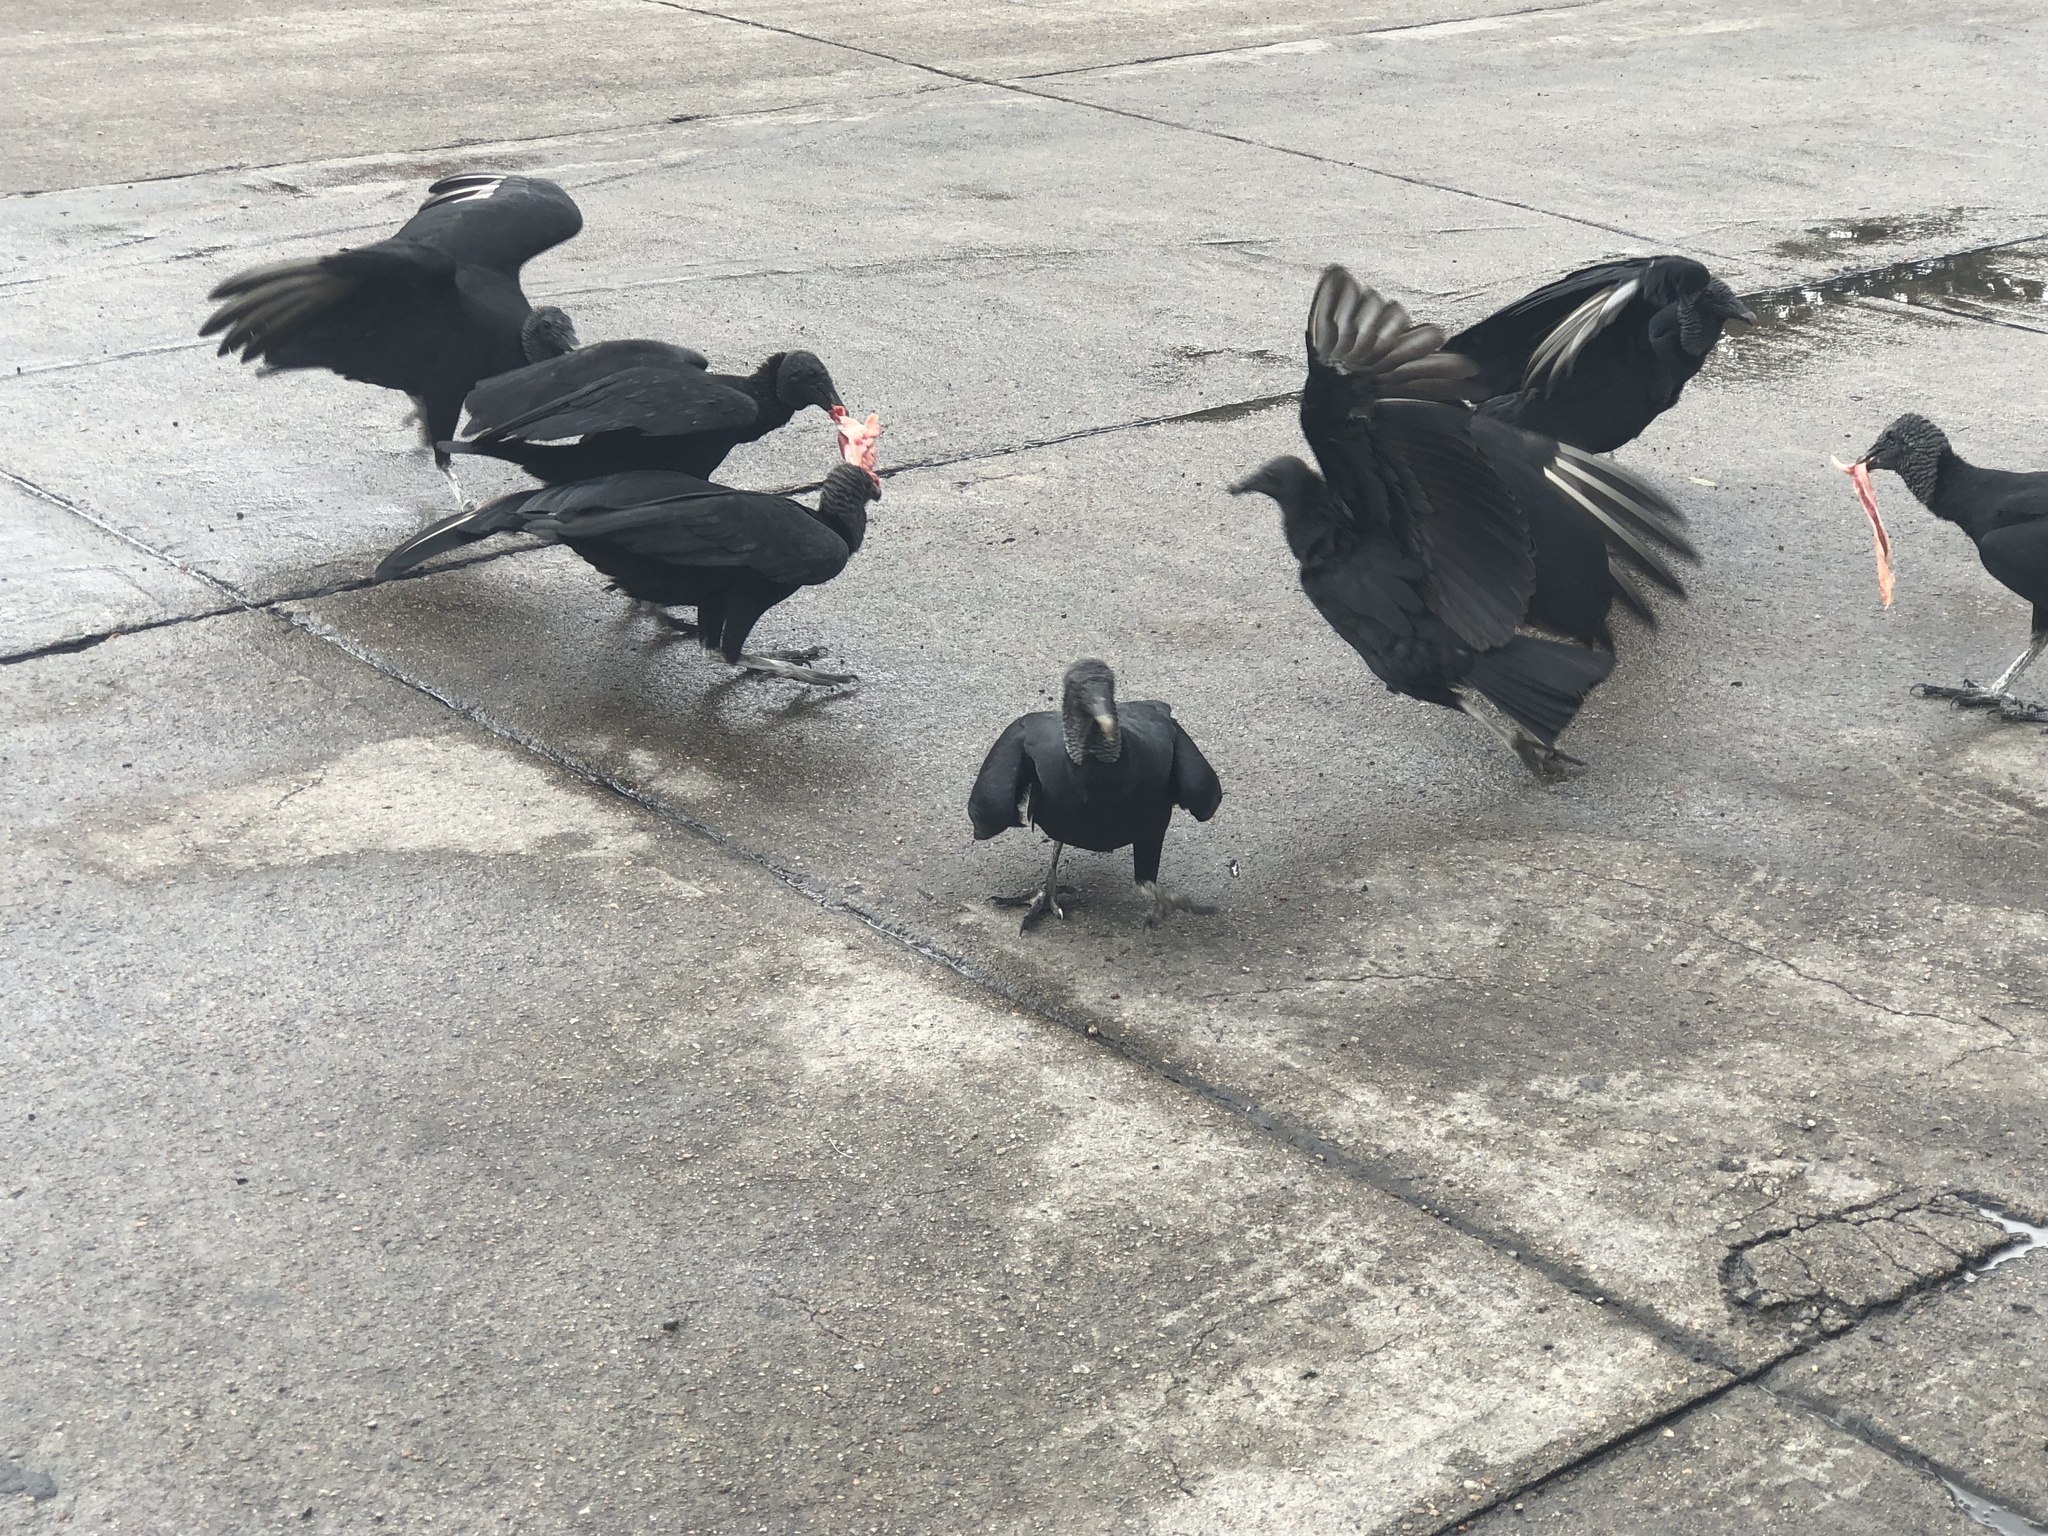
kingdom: Animalia
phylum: Chordata
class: Aves
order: Accipitriformes
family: Cathartidae
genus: Coragyps
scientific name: Coragyps atratus
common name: Black vulture
